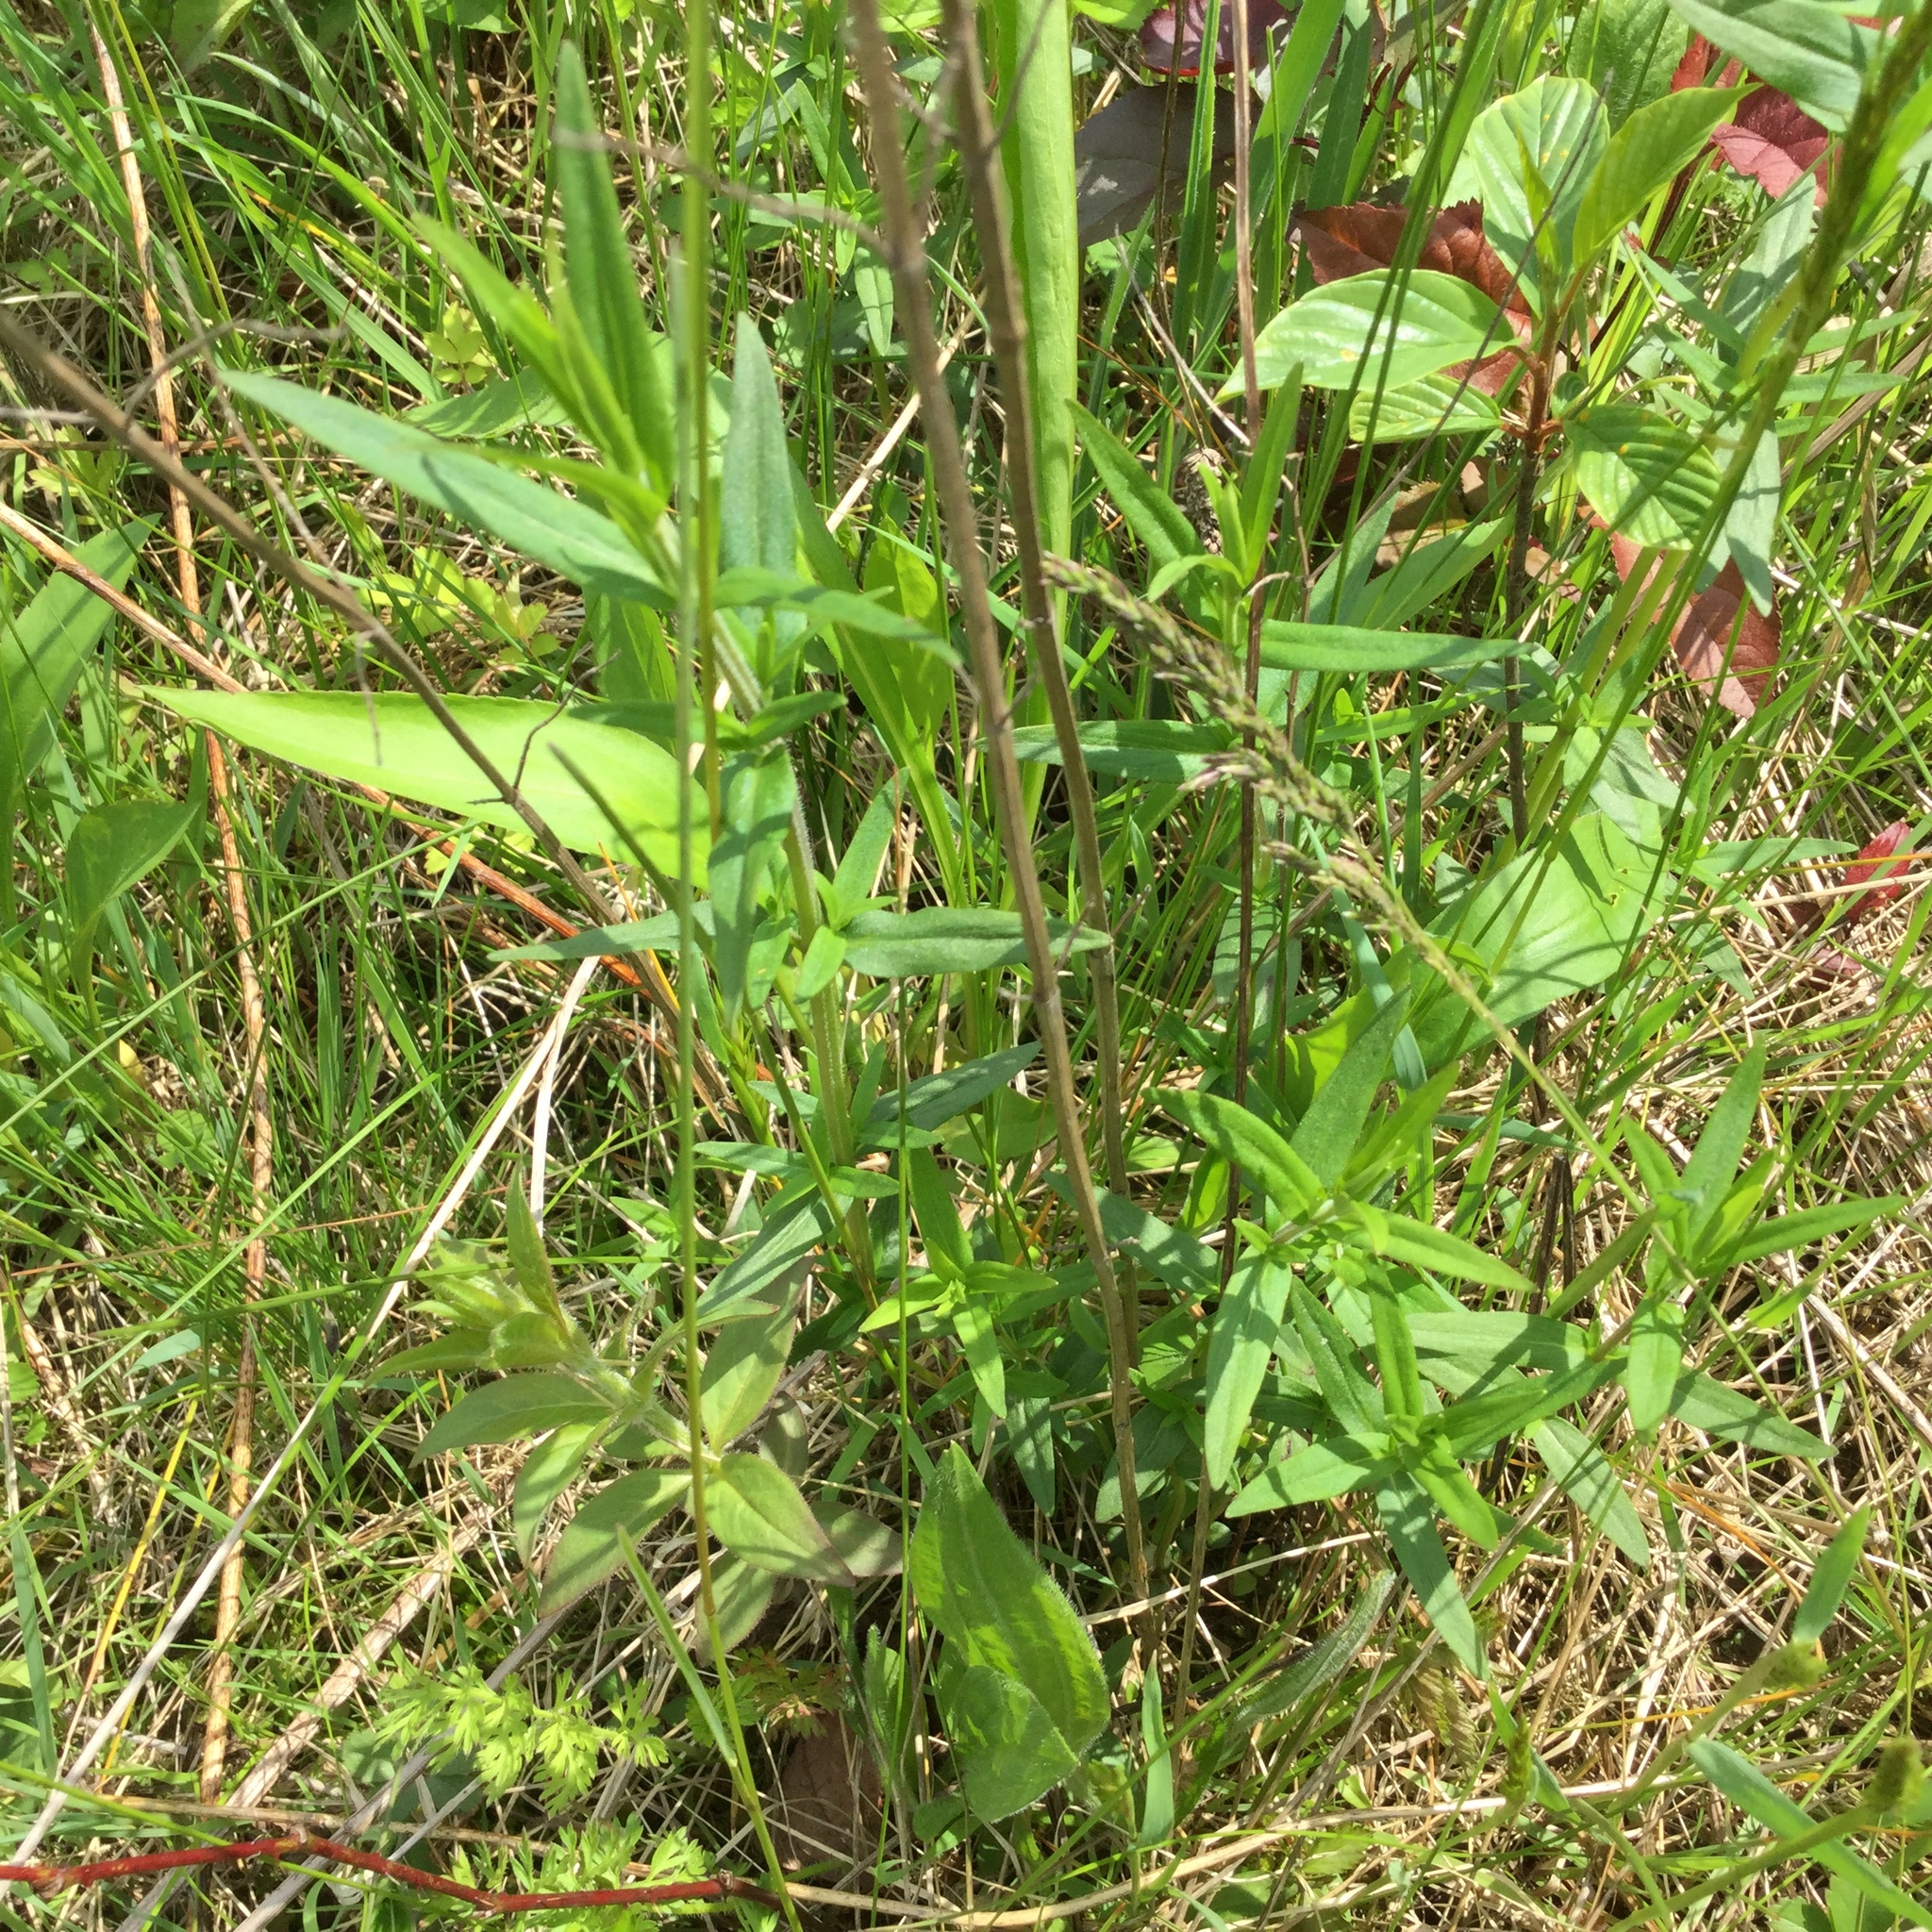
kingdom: Plantae
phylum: Tracheophyta
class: Magnoliopsida
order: Lamiales
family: Lamiaceae
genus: Pycnanthemum
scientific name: Pycnanthemum virginianum
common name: Virginia mountain-mint
